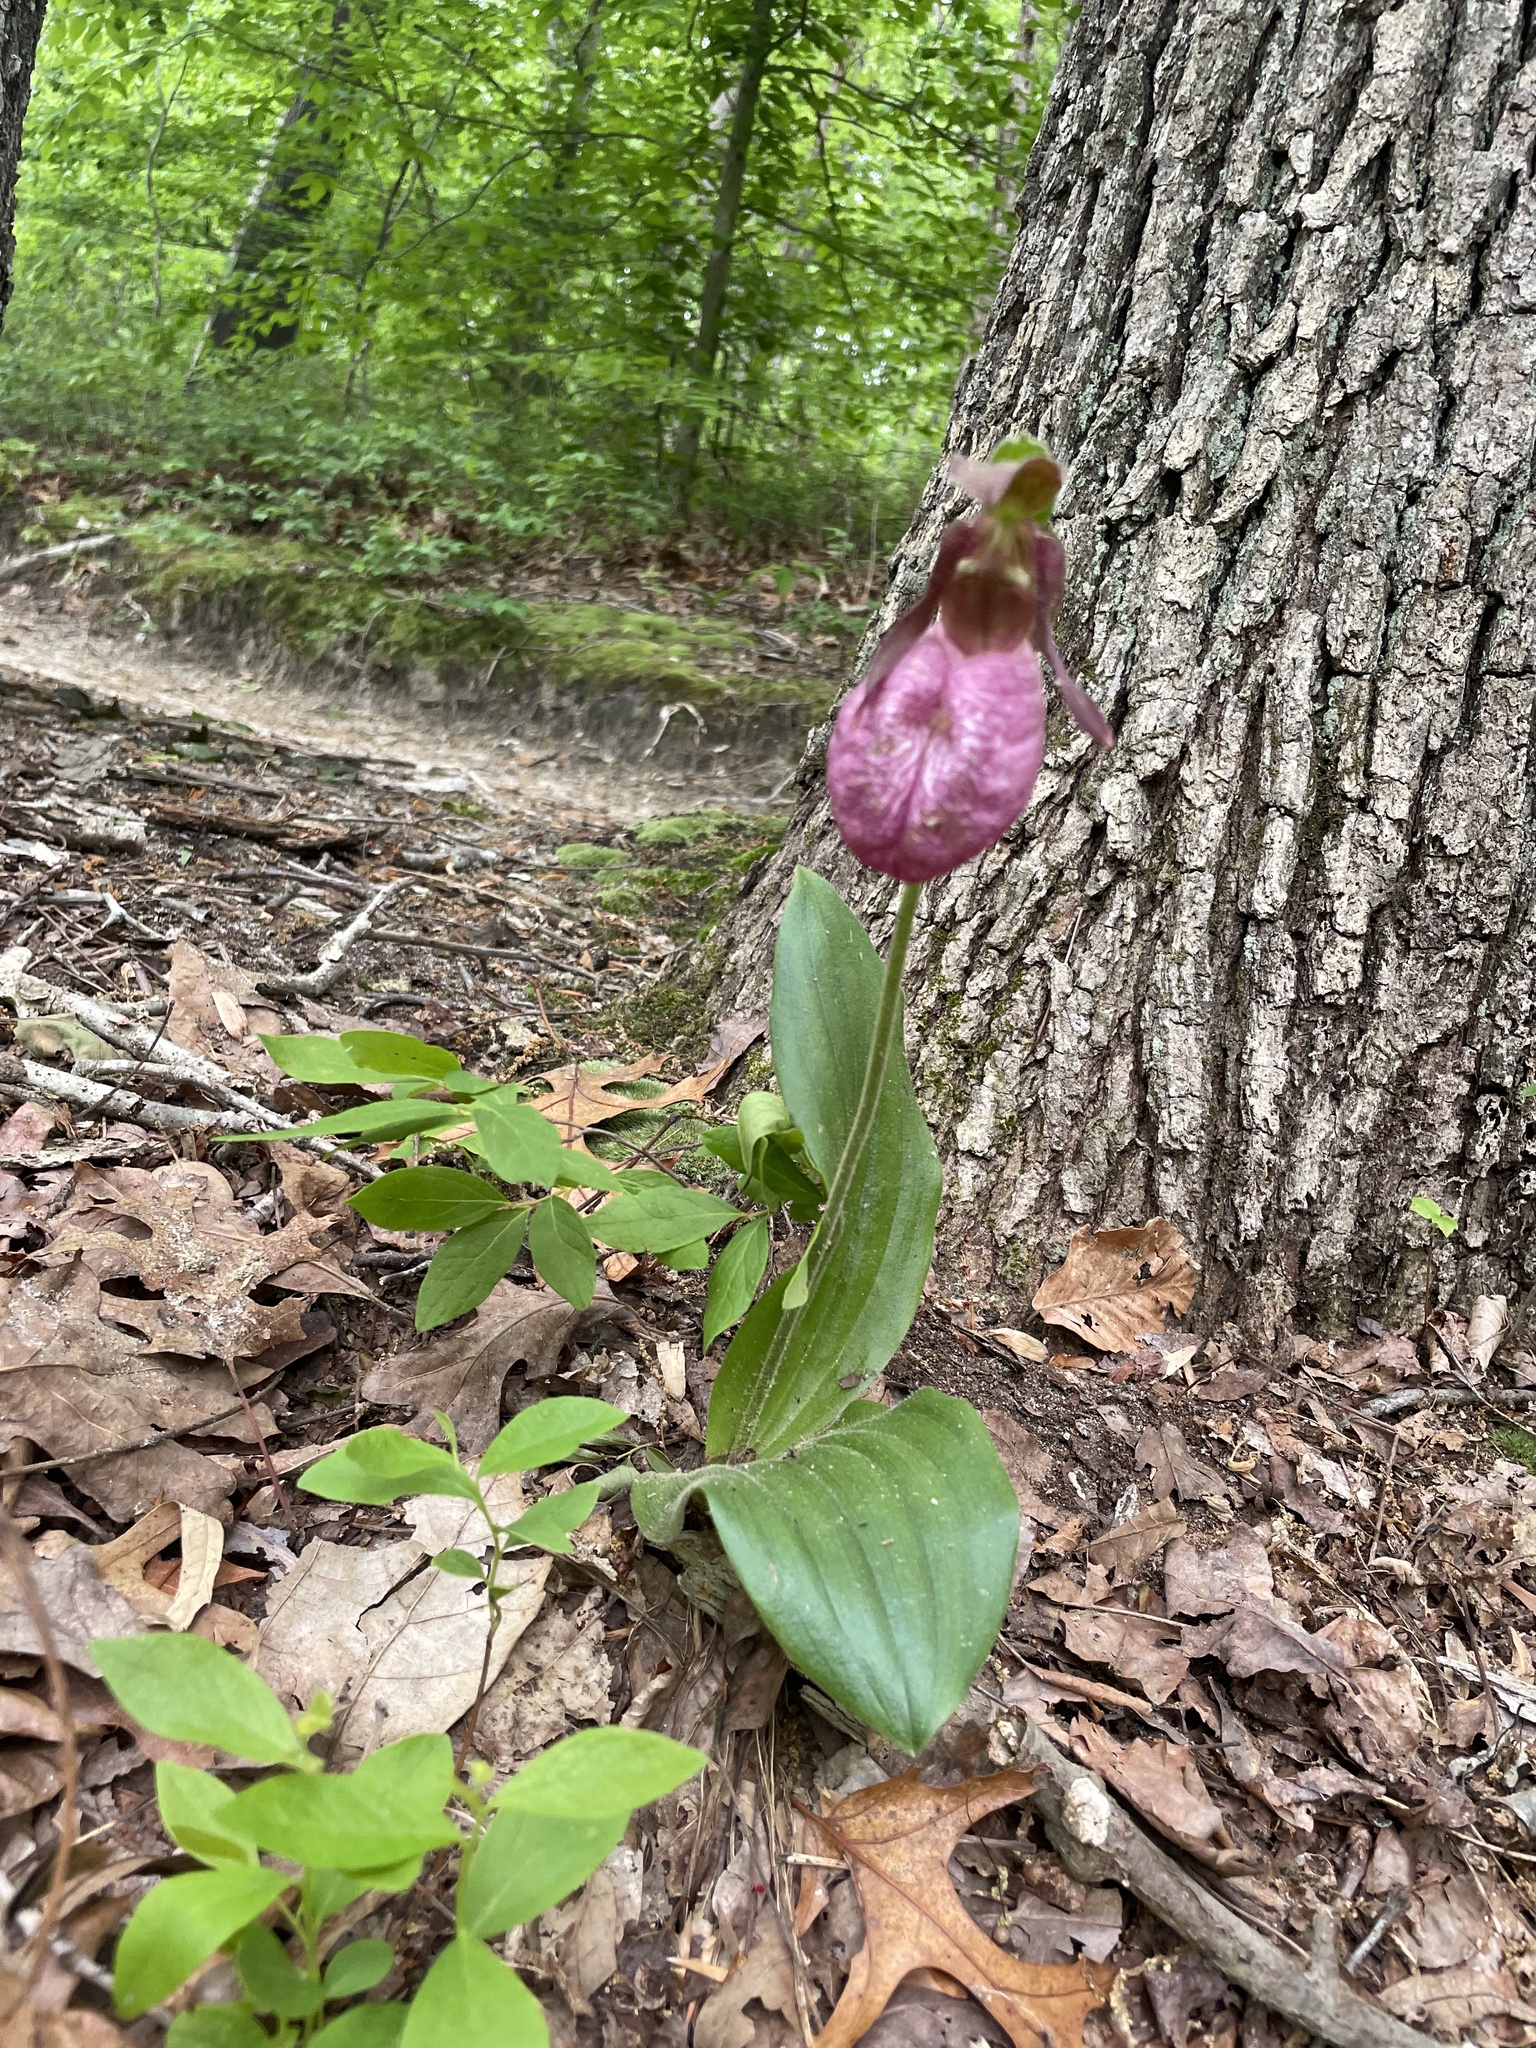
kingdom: Plantae
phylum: Tracheophyta
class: Liliopsida
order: Asparagales
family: Orchidaceae
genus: Cypripedium
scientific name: Cypripedium acaule
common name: Pink lady's-slipper
